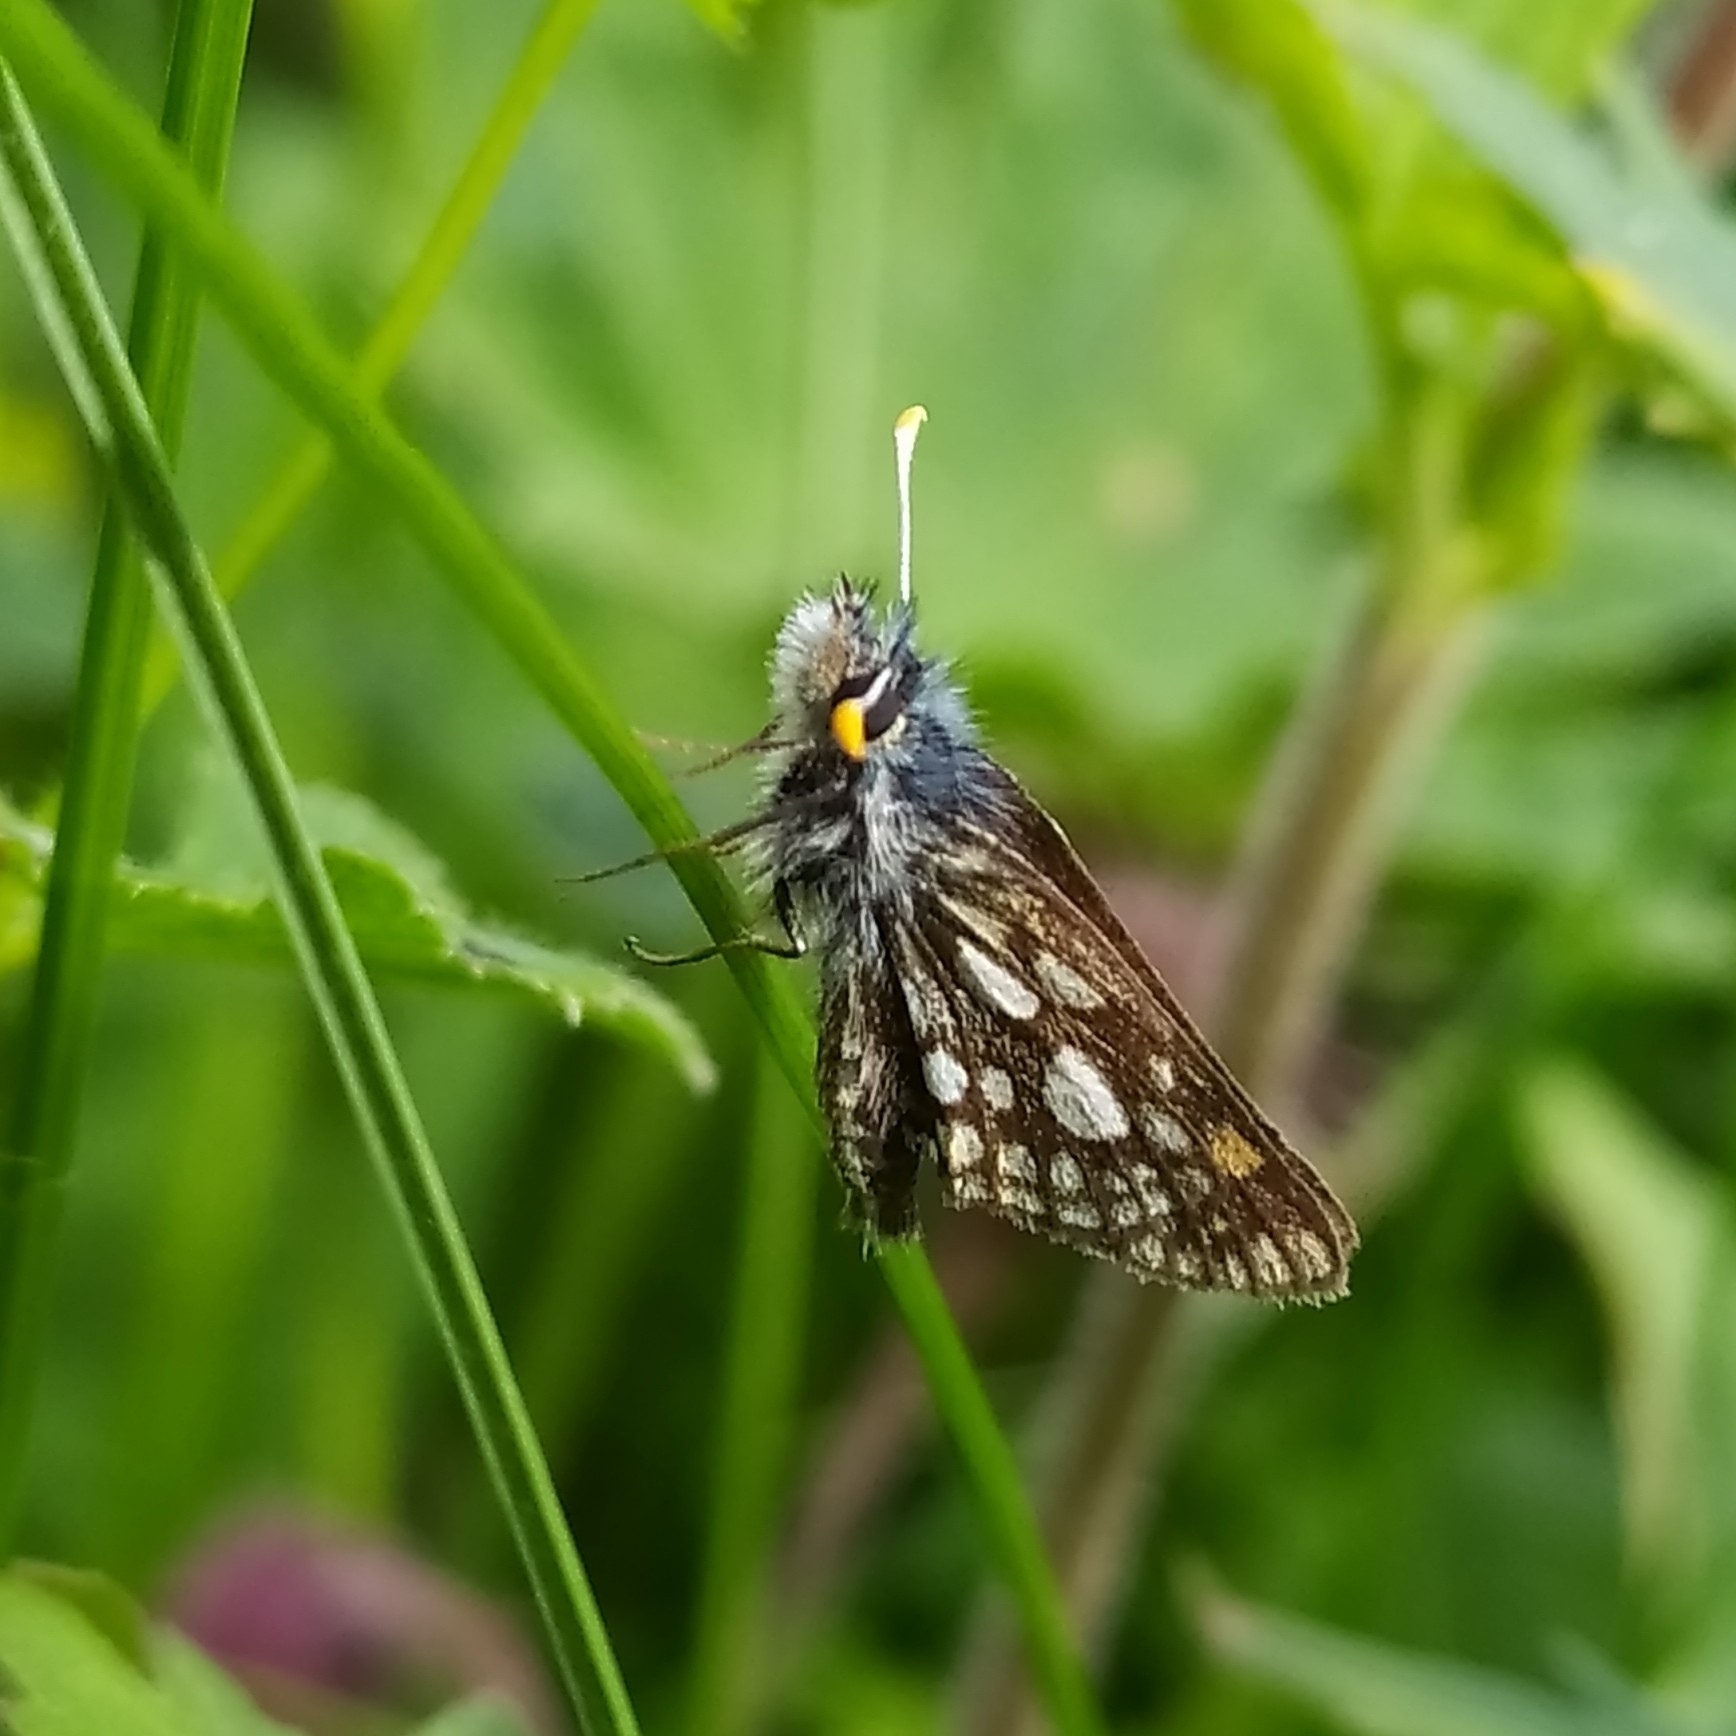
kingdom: Animalia
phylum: Arthropoda
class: Insecta
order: Lepidoptera
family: Hesperiidae
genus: Carterocephalus
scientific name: Carterocephalus palaemon
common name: Chequered skipper
